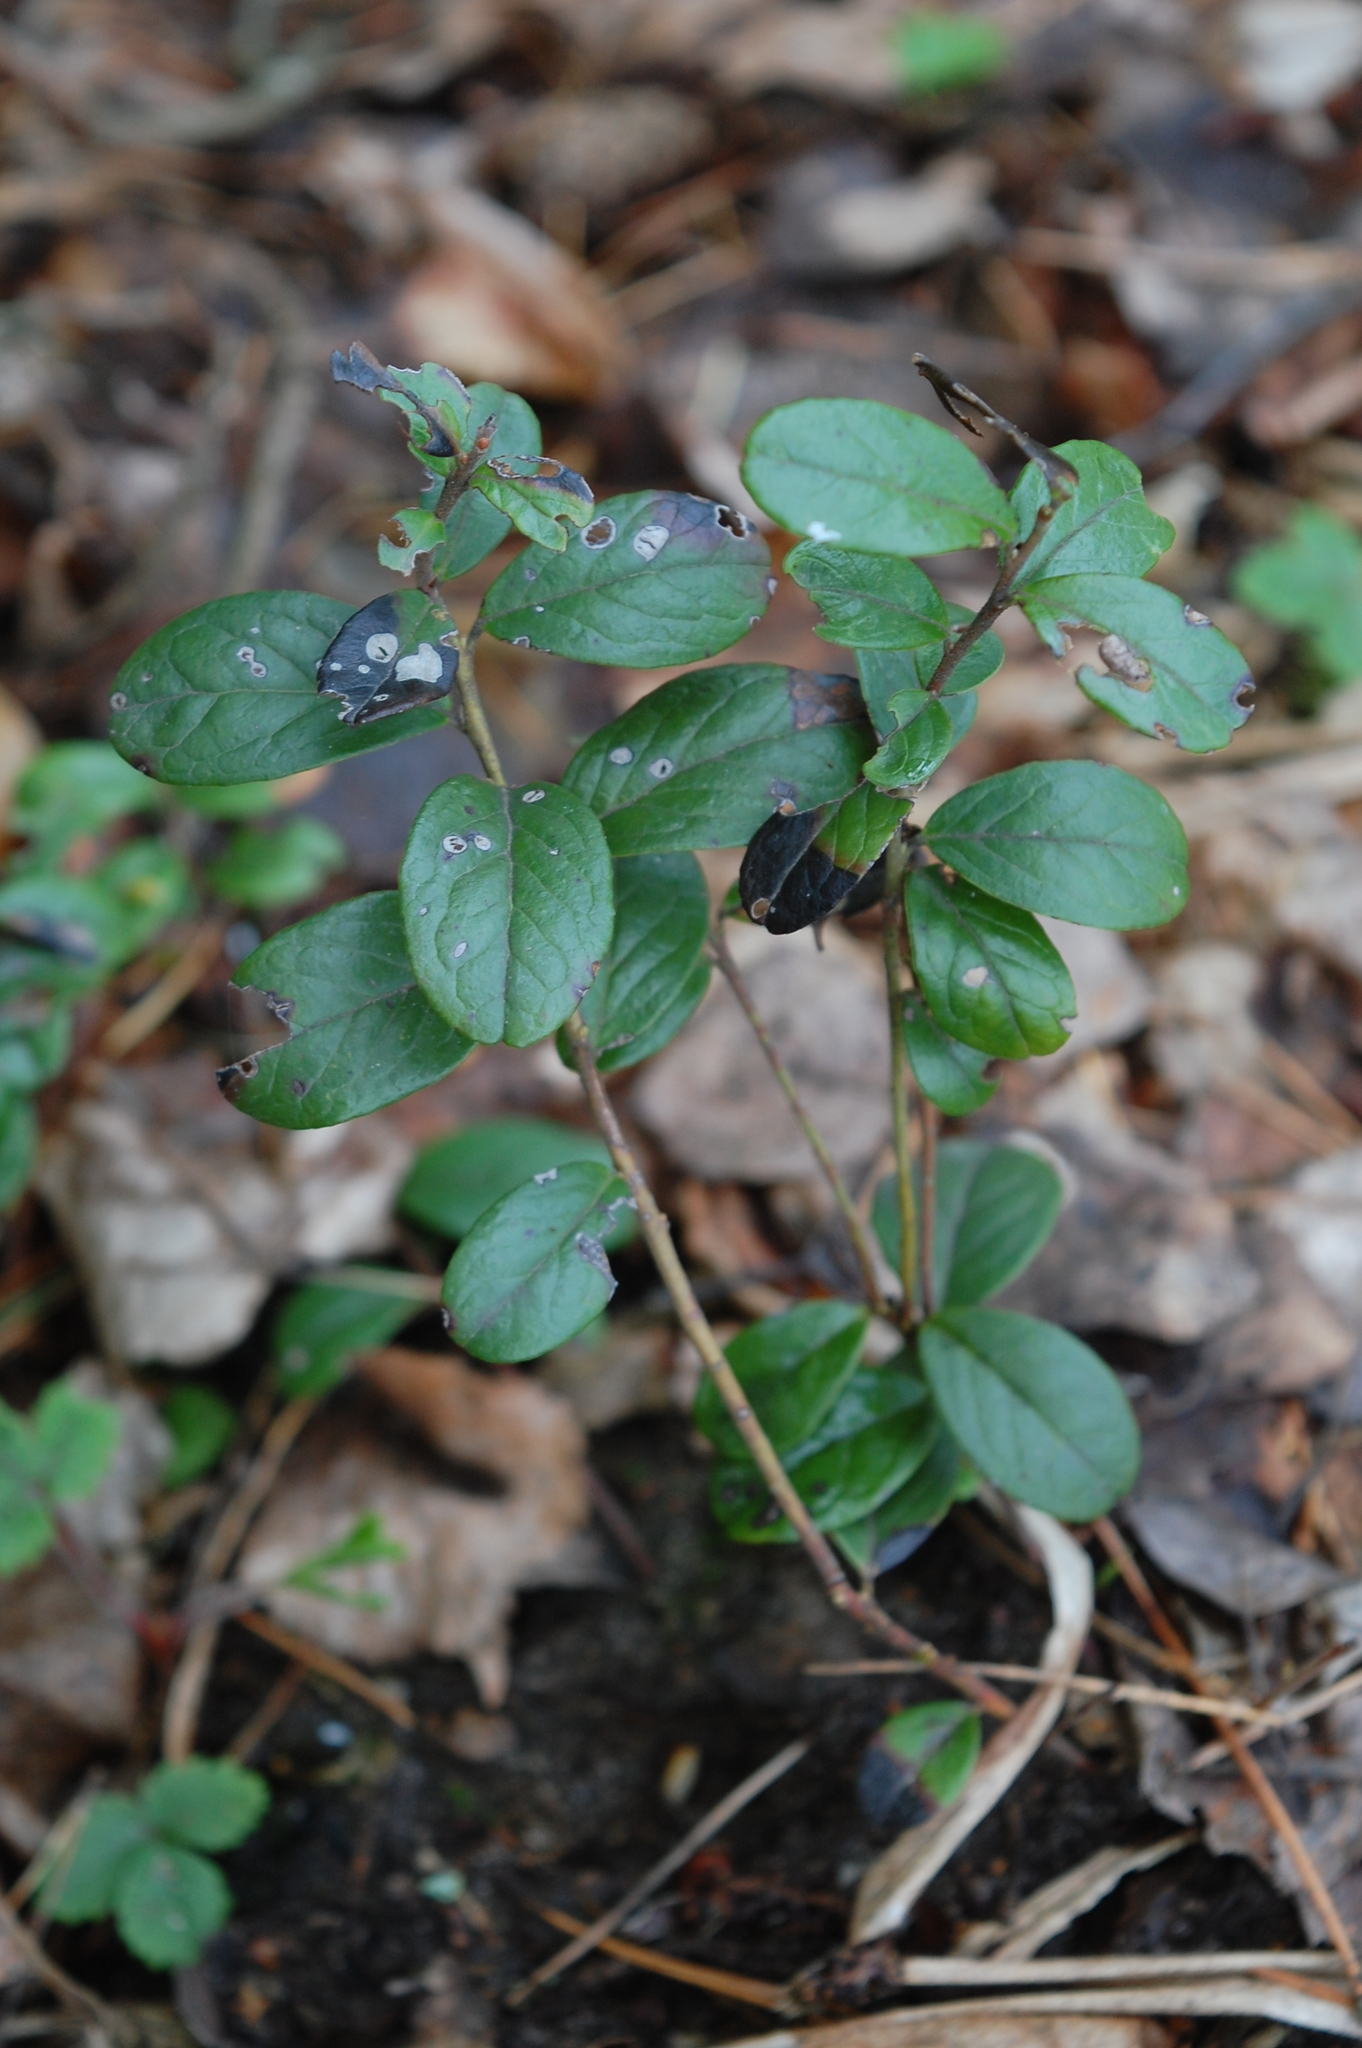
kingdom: Plantae
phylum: Tracheophyta
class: Magnoliopsida
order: Ericales
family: Ericaceae
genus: Vaccinium
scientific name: Vaccinium vitis-idaea
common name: Cowberry
